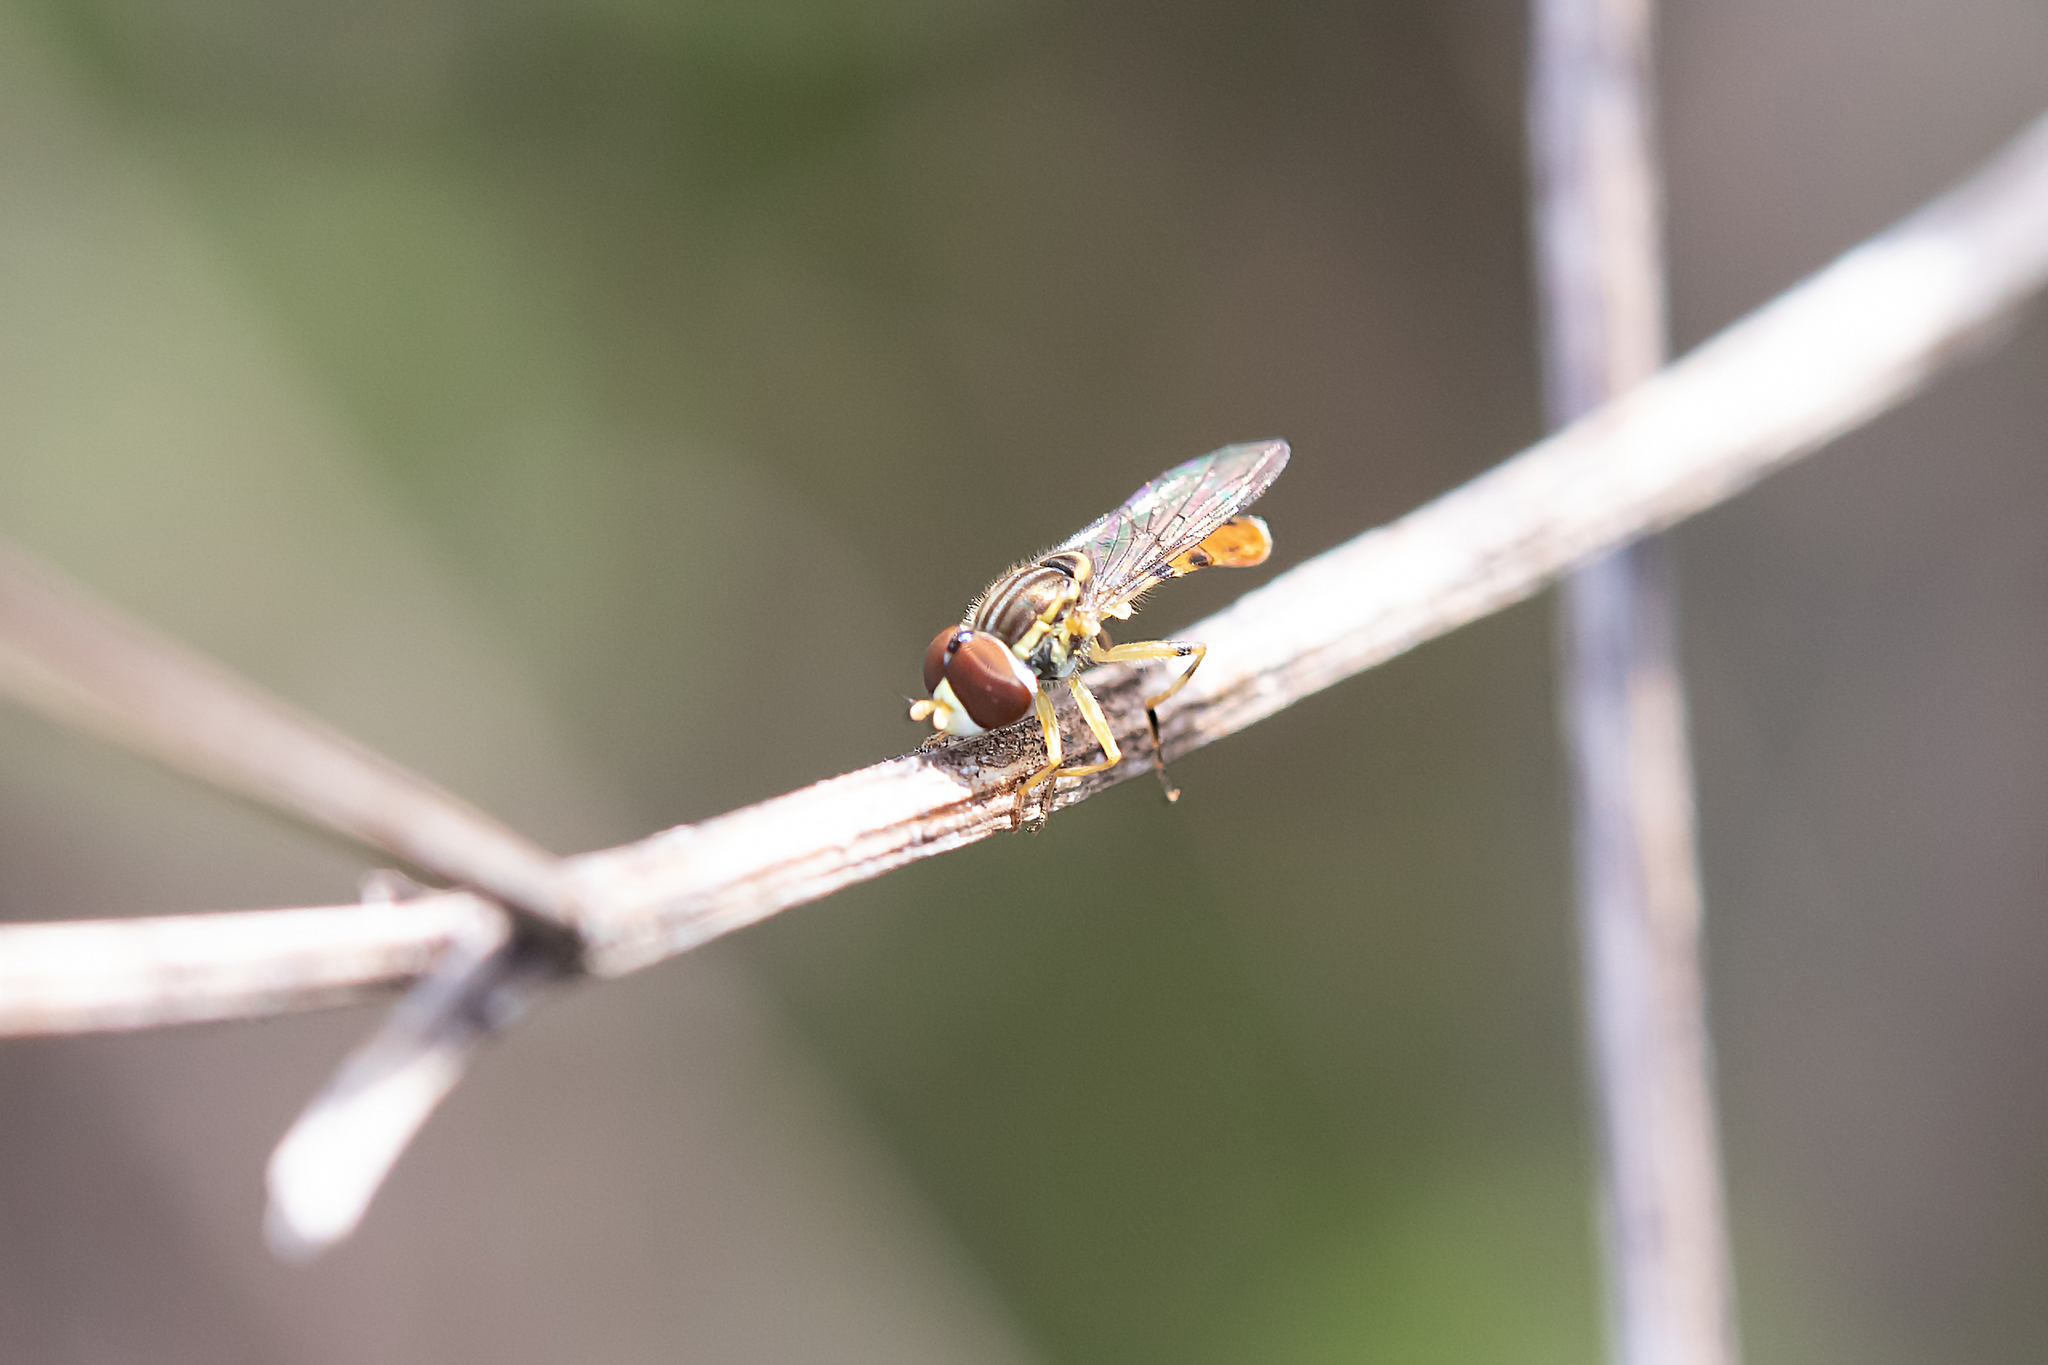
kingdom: Animalia
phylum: Arthropoda
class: Insecta
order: Diptera
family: Syrphidae
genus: Toxomerus
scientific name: Toxomerus floralis
